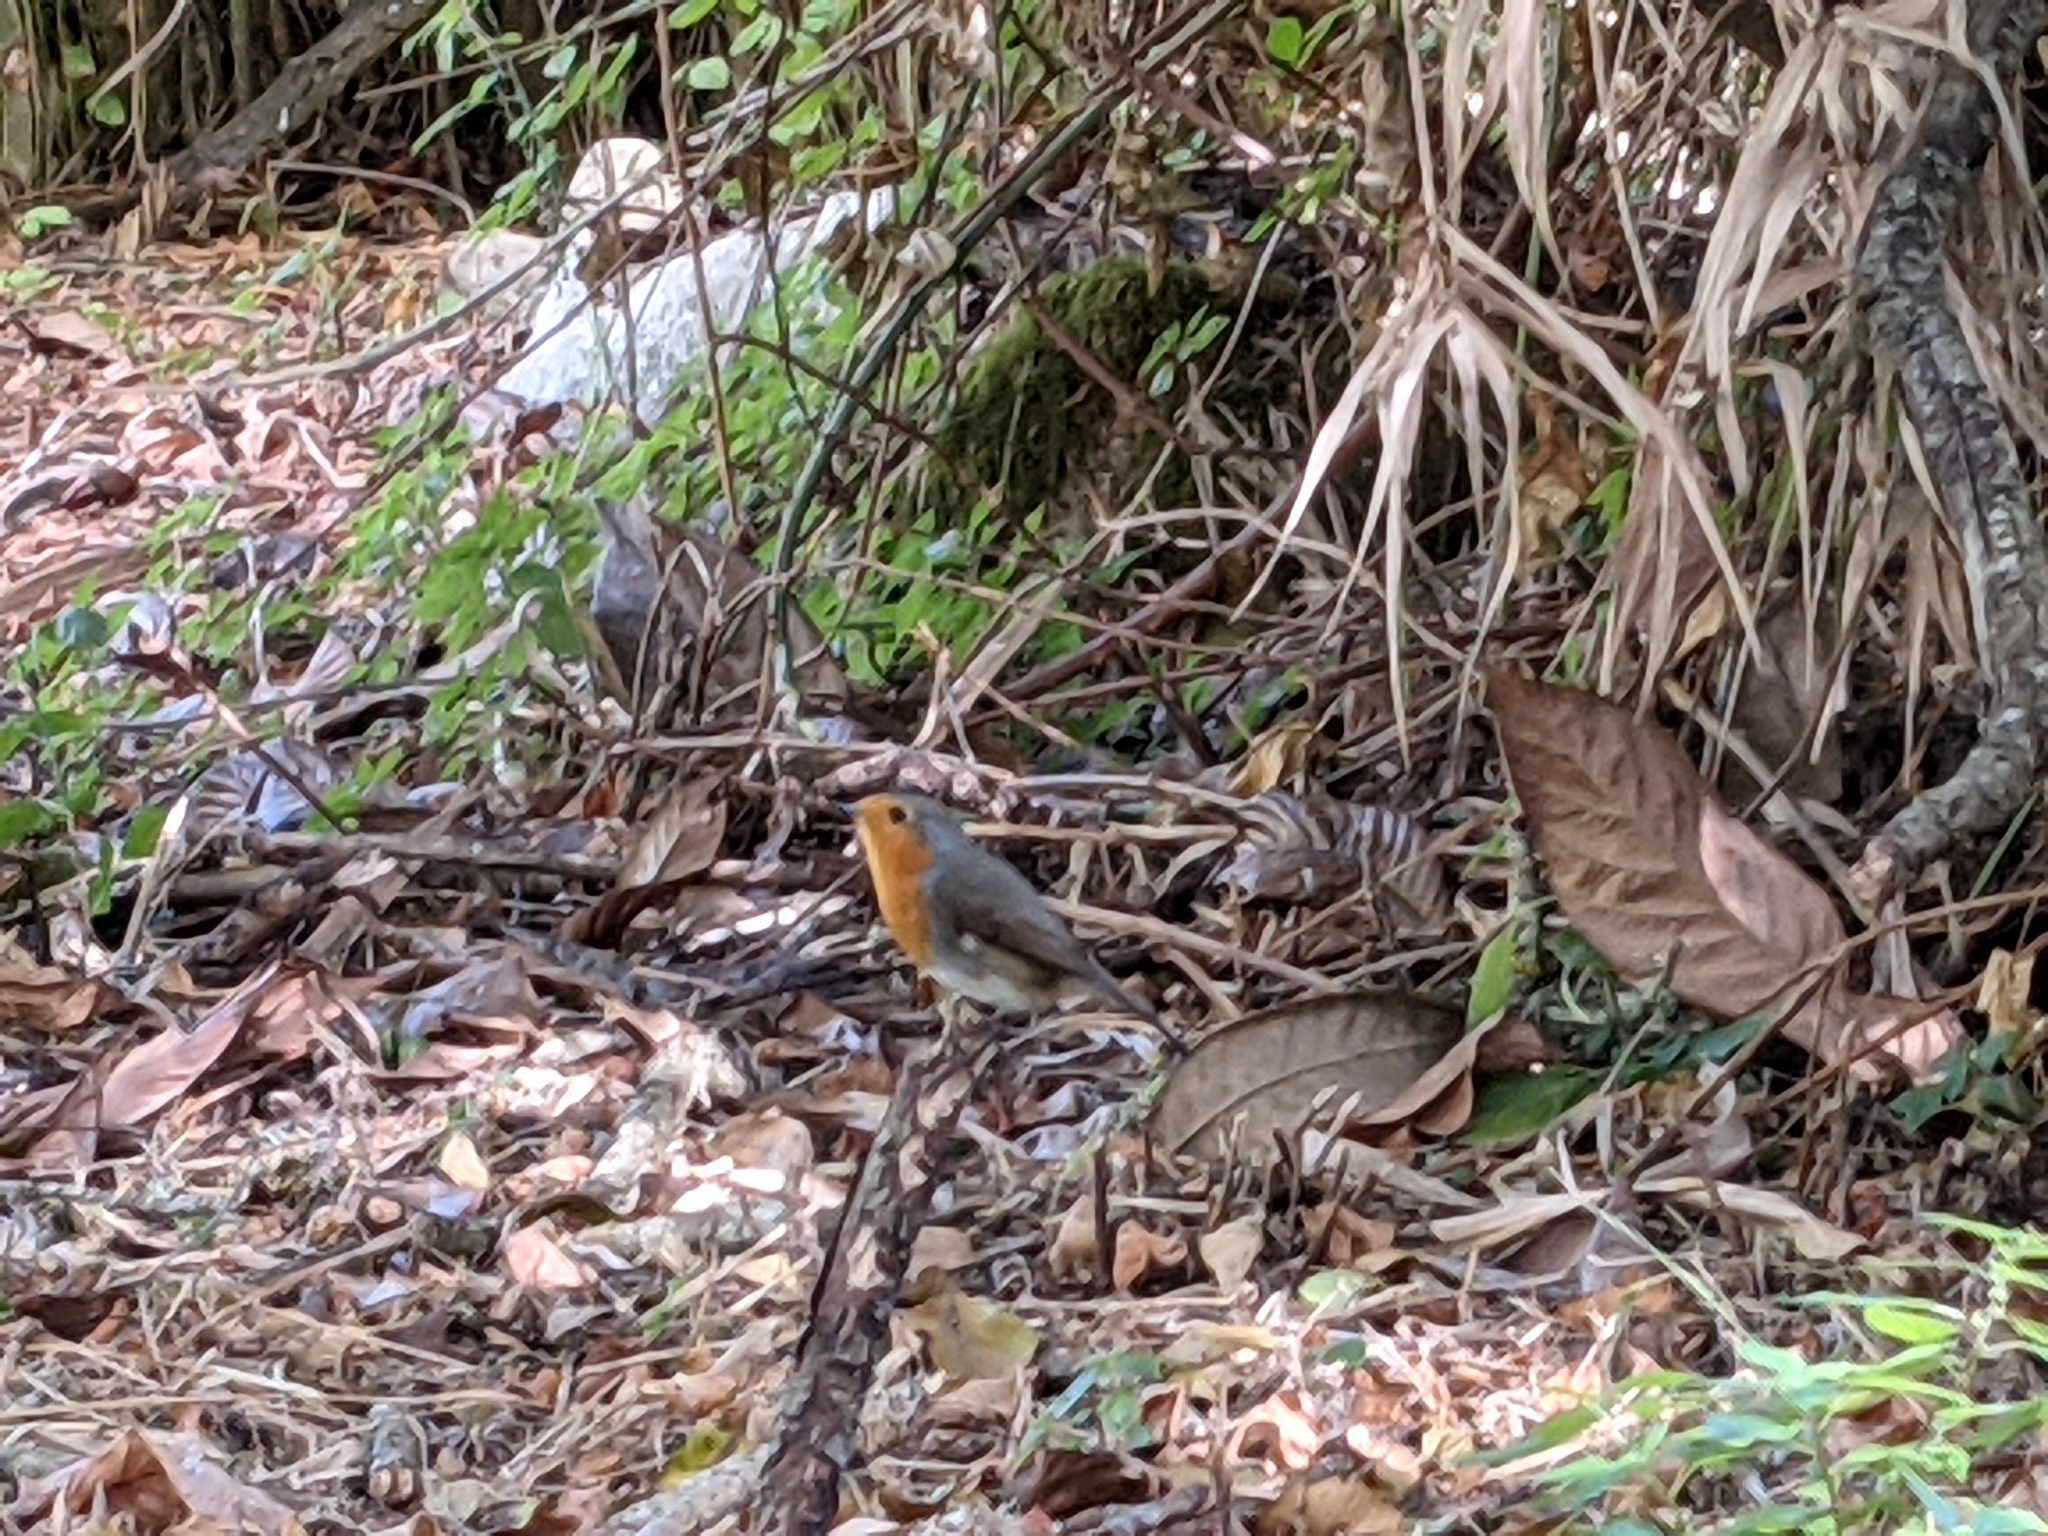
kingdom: Animalia
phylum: Chordata
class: Aves
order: Passeriformes
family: Muscicapidae
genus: Erithacus
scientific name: Erithacus rubecula
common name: European robin
